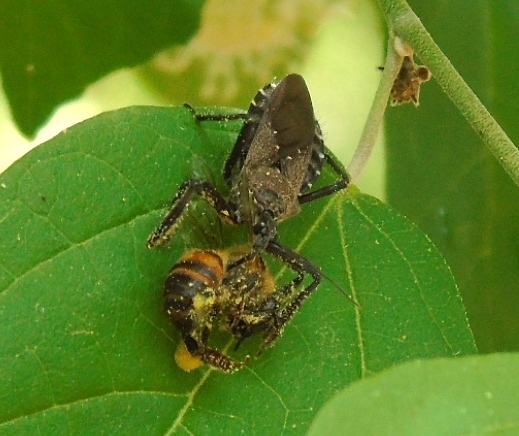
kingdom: Animalia
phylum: Arthropoda
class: Insecta
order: Hemiptera
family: Reduviidae
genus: Apiomerus
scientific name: Apiomerus spissipes
